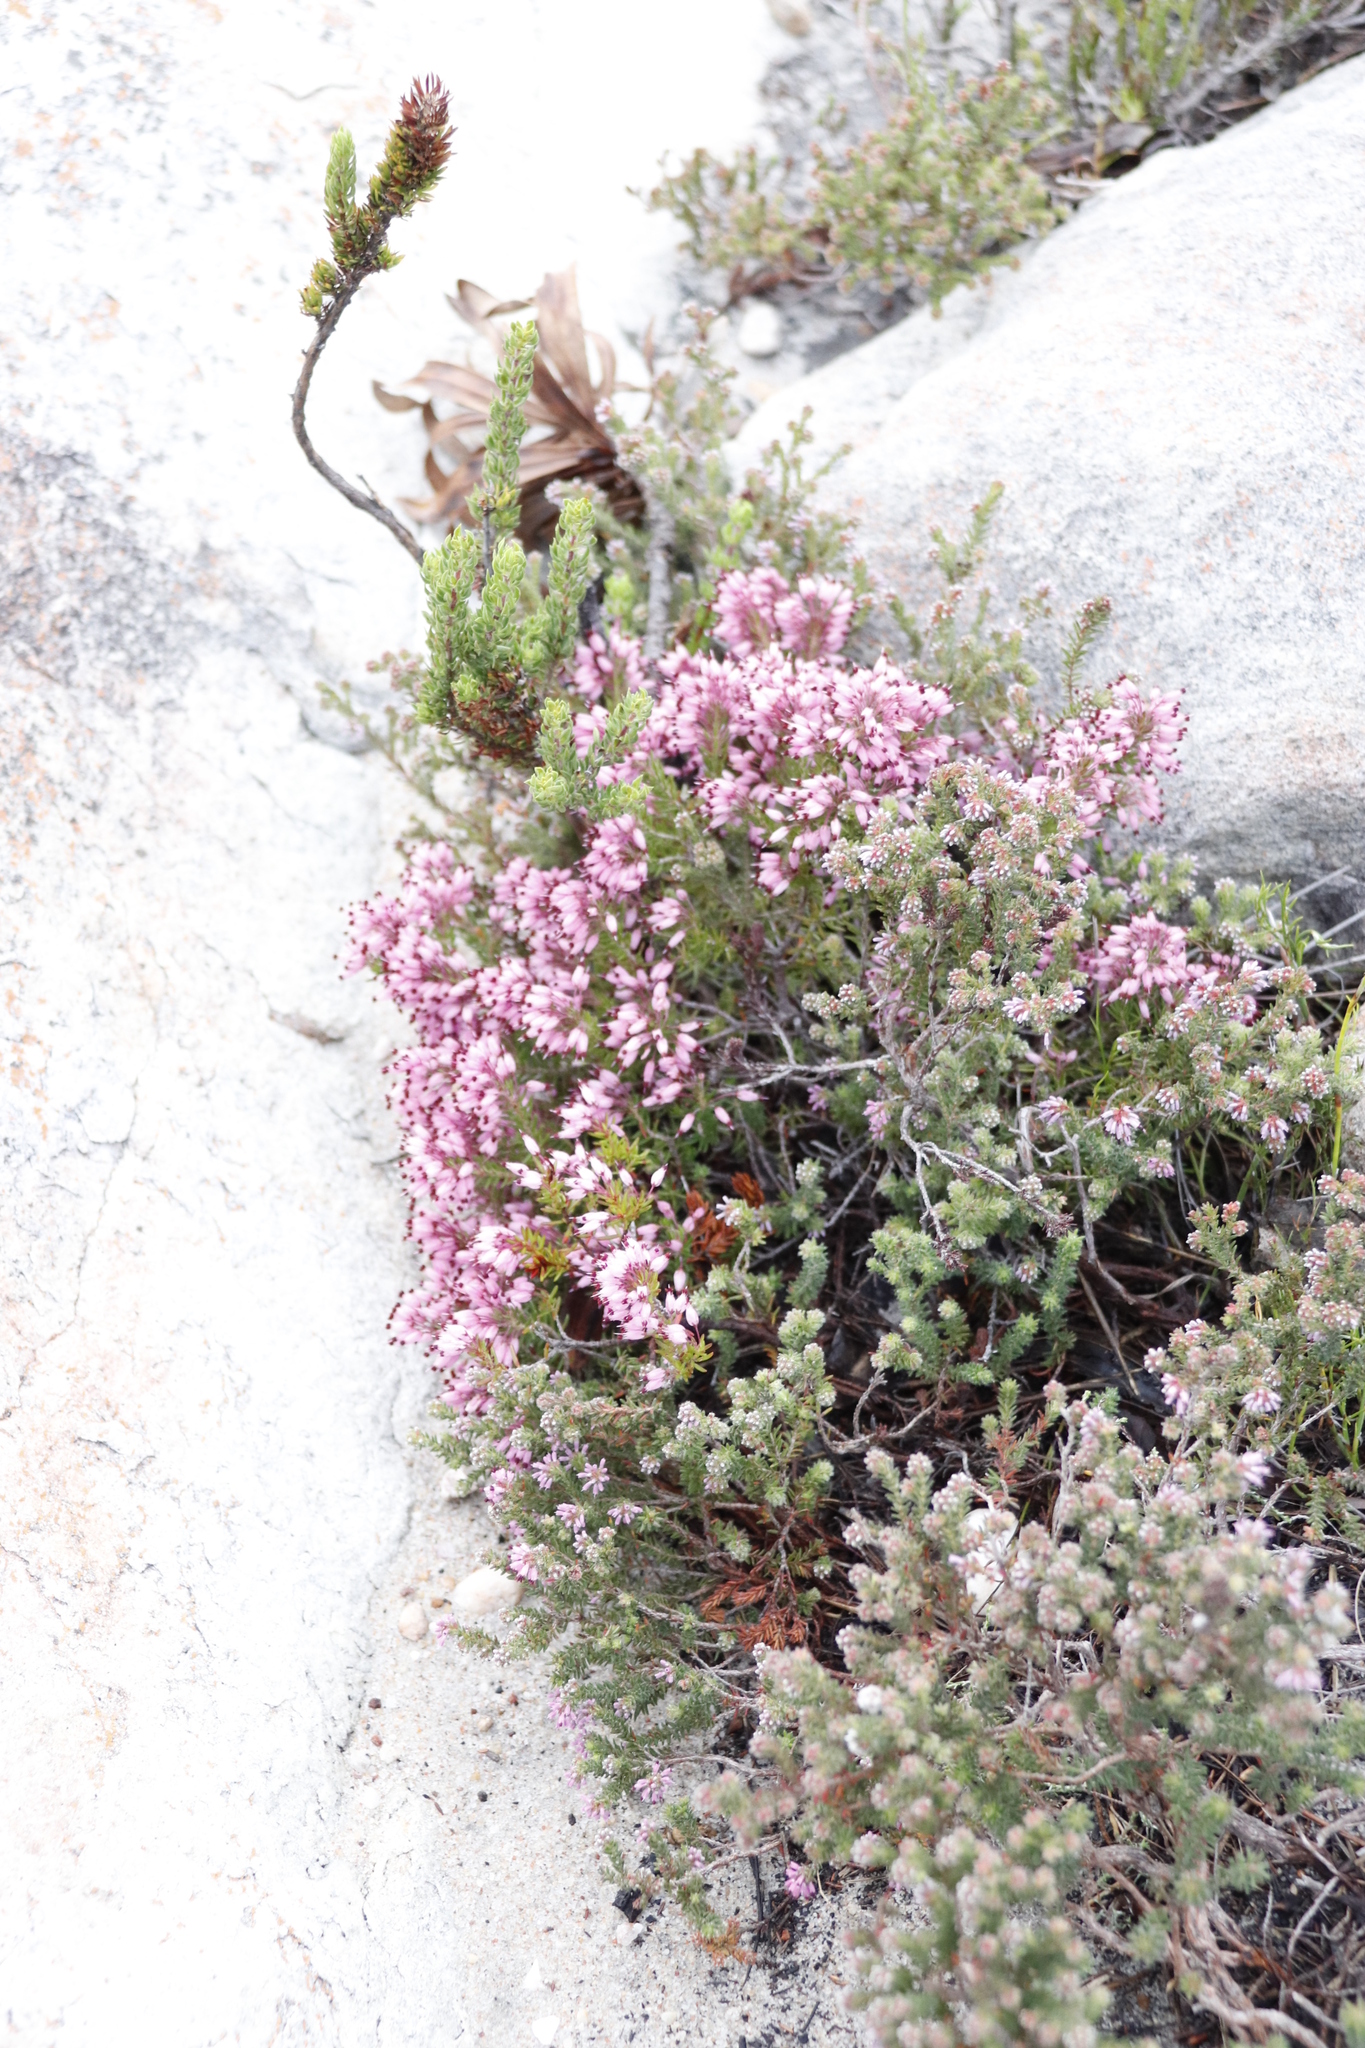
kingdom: Plantae
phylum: Tracheophyta
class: Magnoliopsida
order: Ericales
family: Ericaceae
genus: Erica
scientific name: Erica nudiflora
